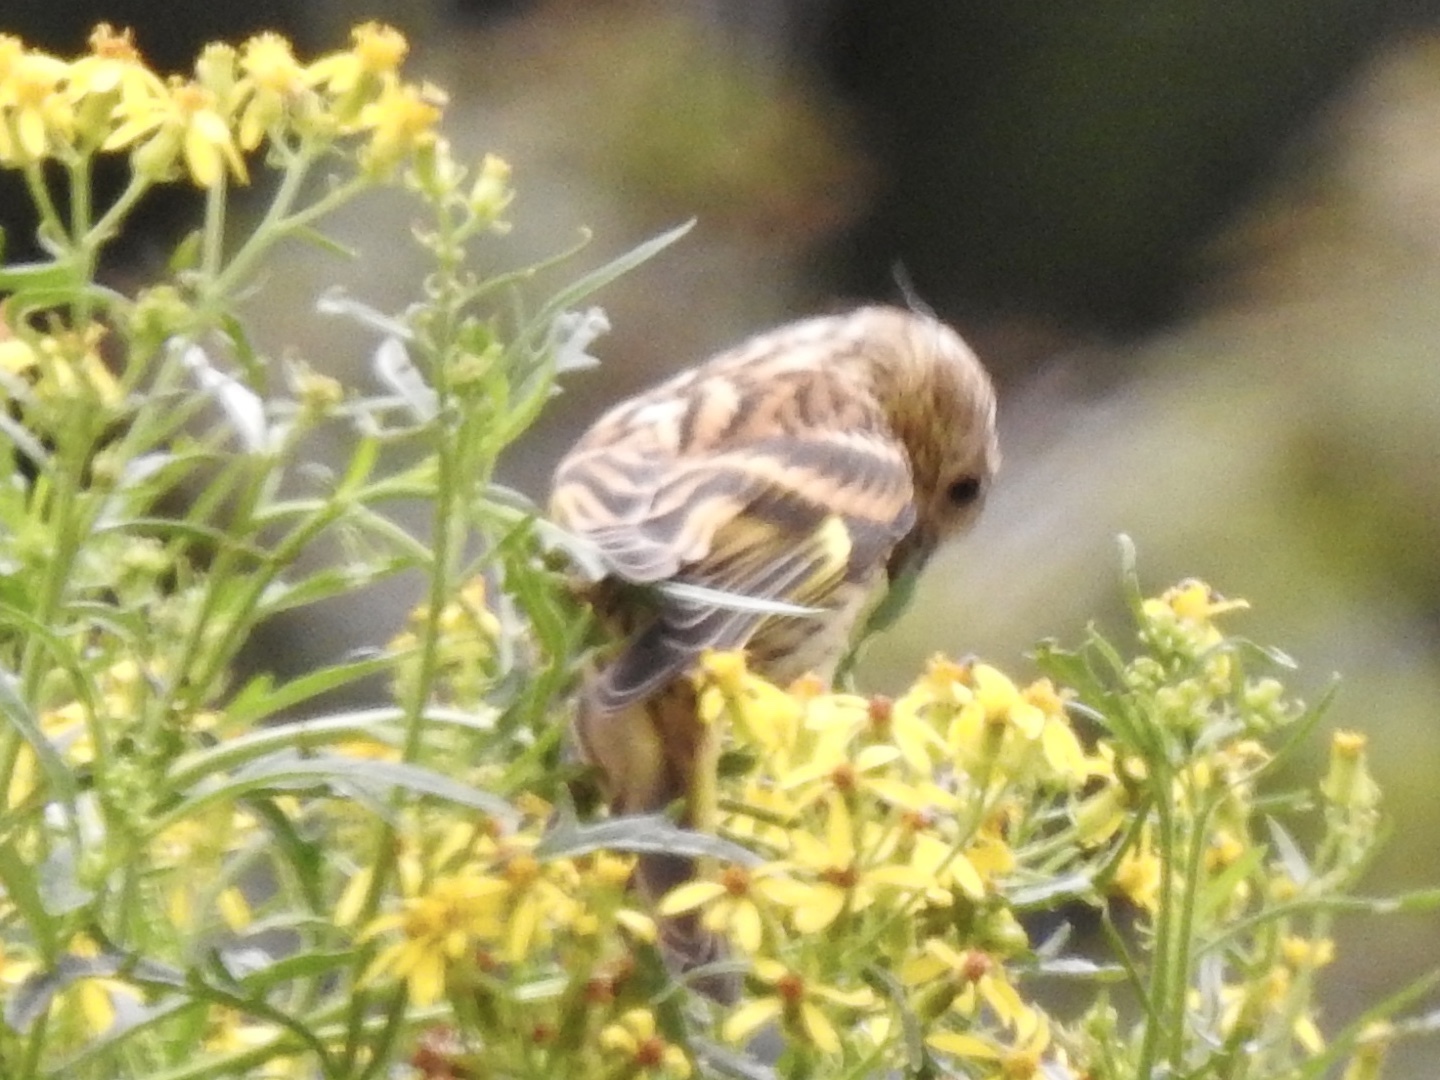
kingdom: Animalia
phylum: Chordata
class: Aves
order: Passeriformes
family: Fringillidae
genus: Spinus
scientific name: Spinus pinus
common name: Pine siskin
